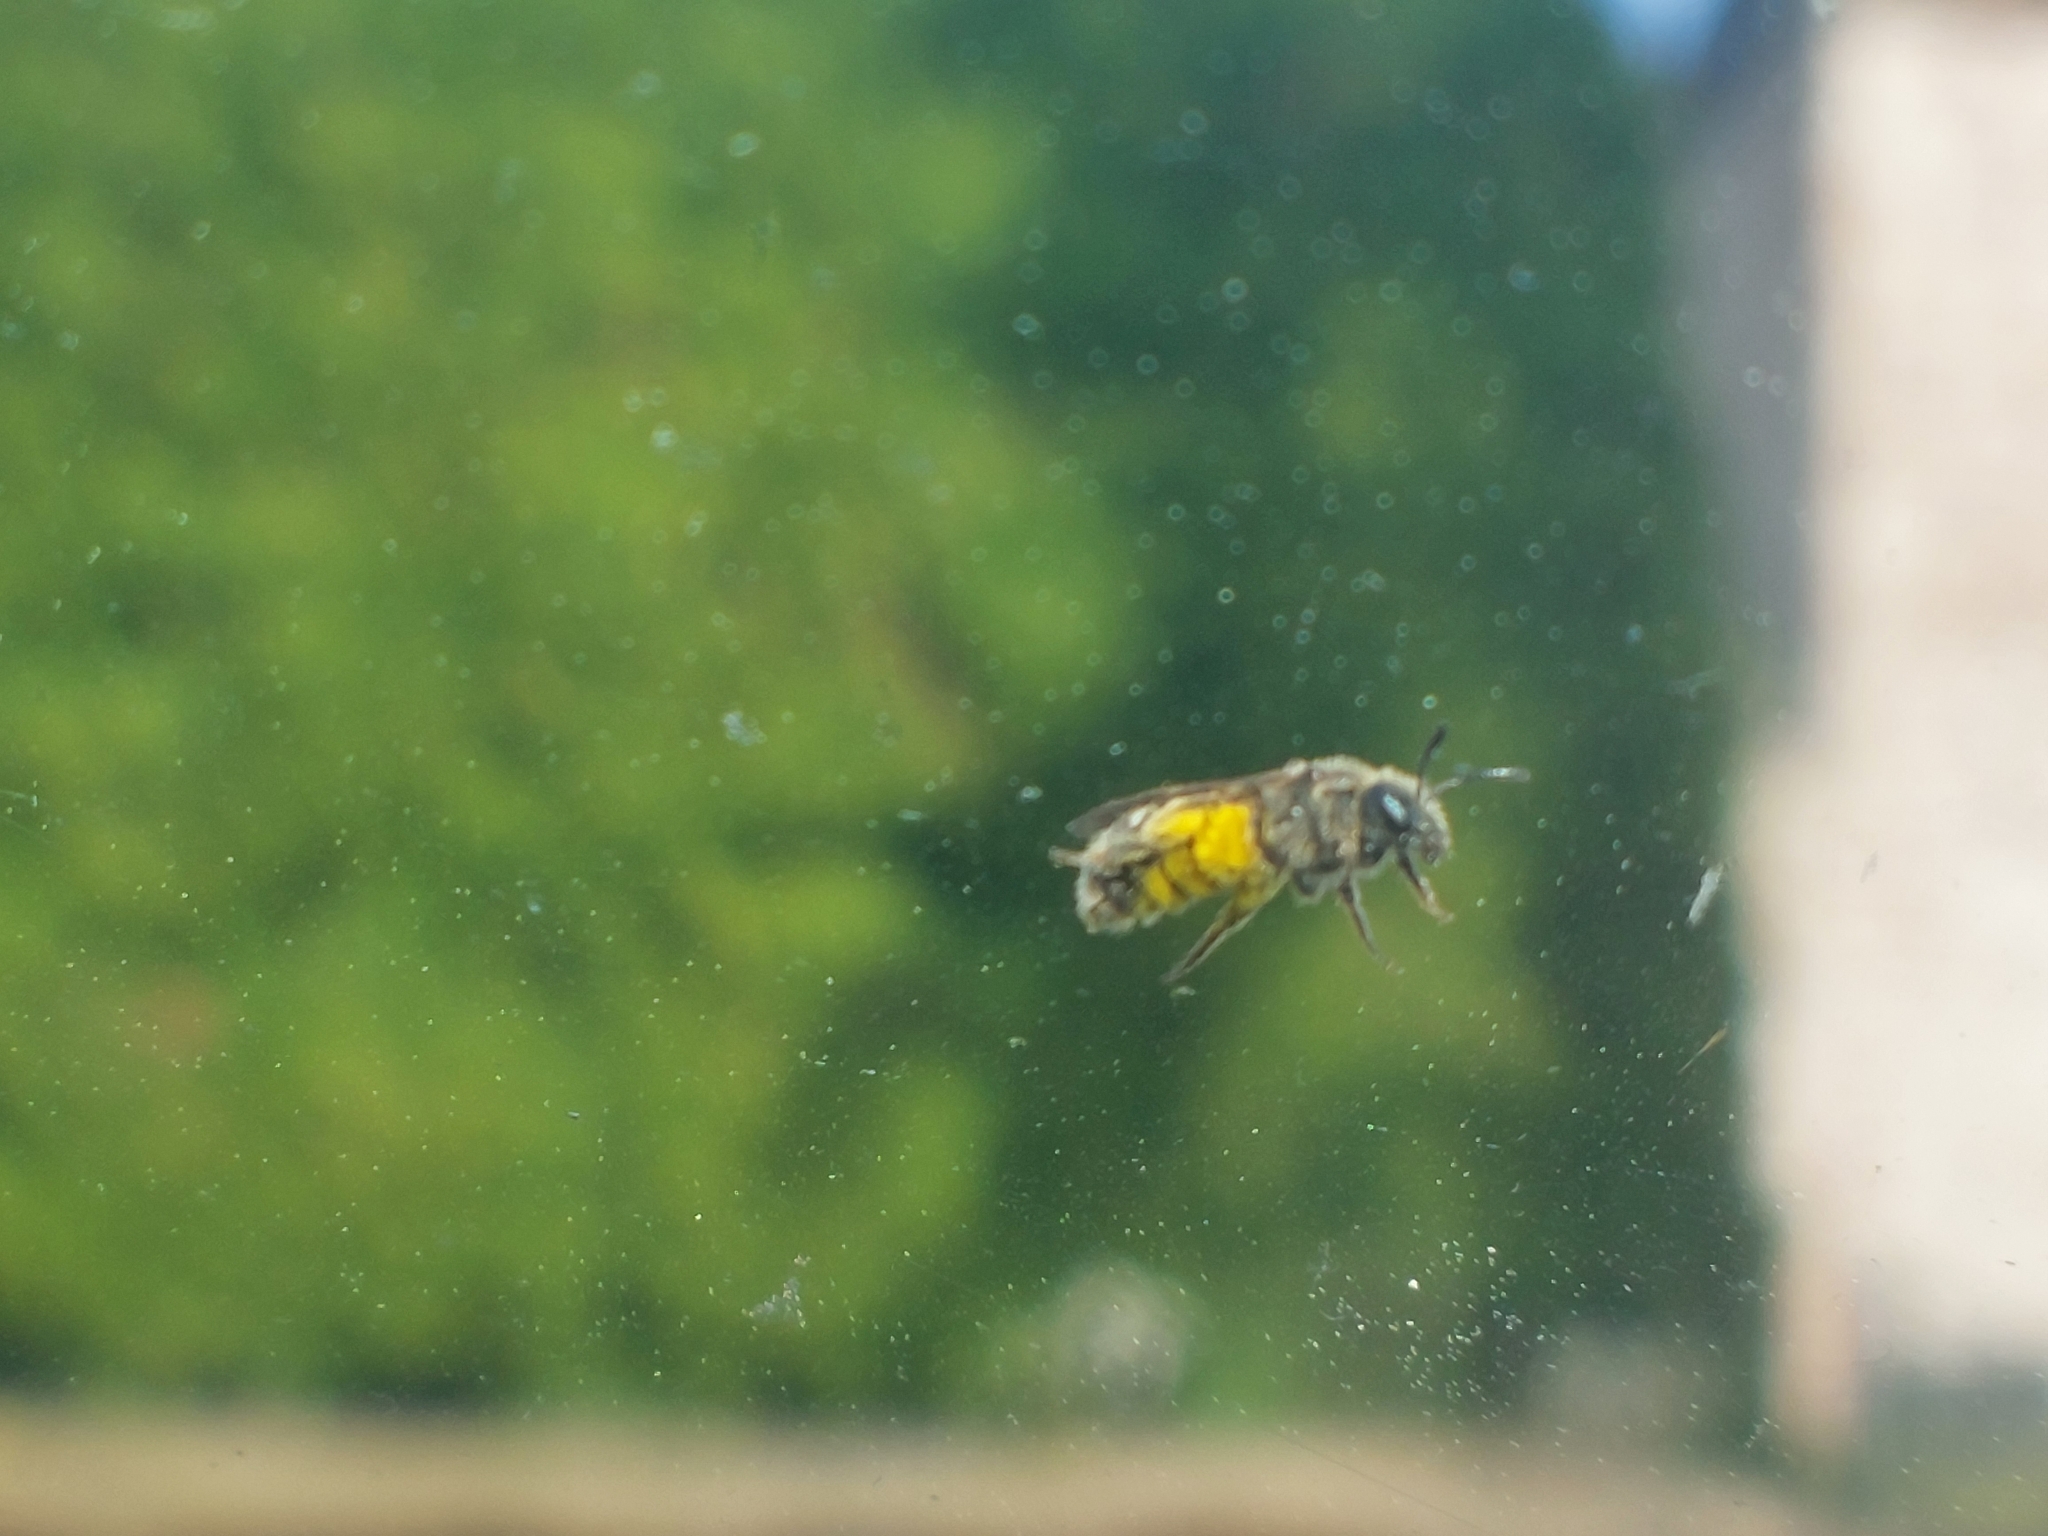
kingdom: Animalia
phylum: Arthropoda
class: Insecta
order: Hymenoptera
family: Apidae
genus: Apis
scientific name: Apis mellifera
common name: Honey bee
